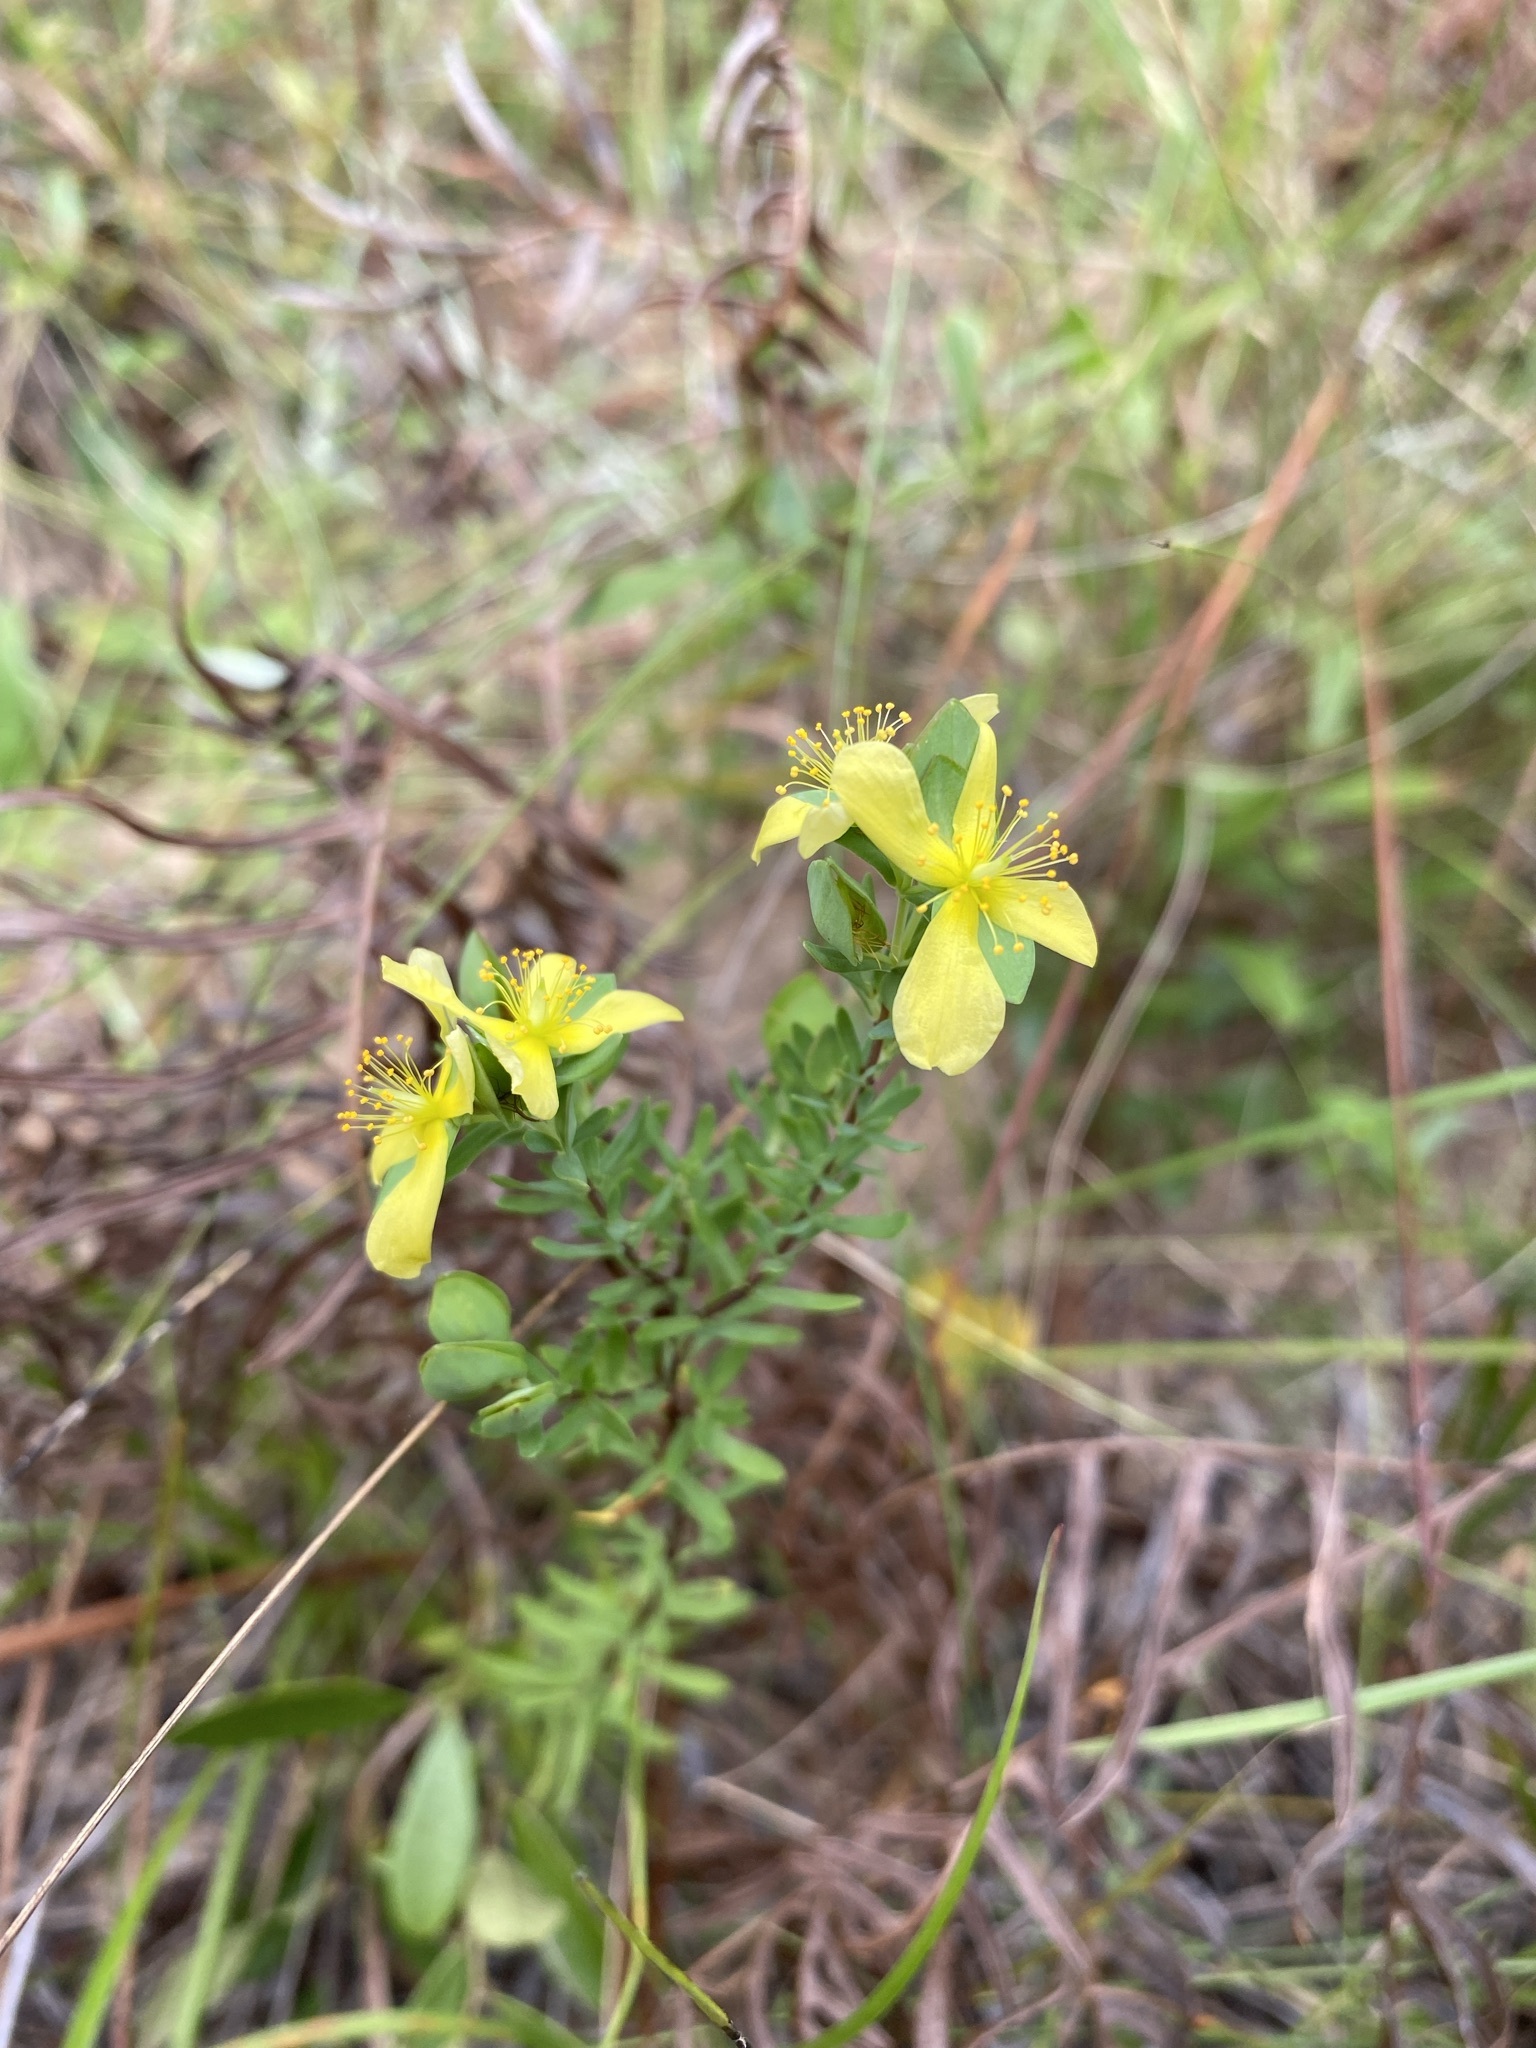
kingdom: Plantae
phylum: Tracheophyta
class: Magnoliopsida
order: Malpighiales
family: Hypericaceae
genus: Hypericum
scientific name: Hypericum hypericoides
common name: St. andrew's cross
